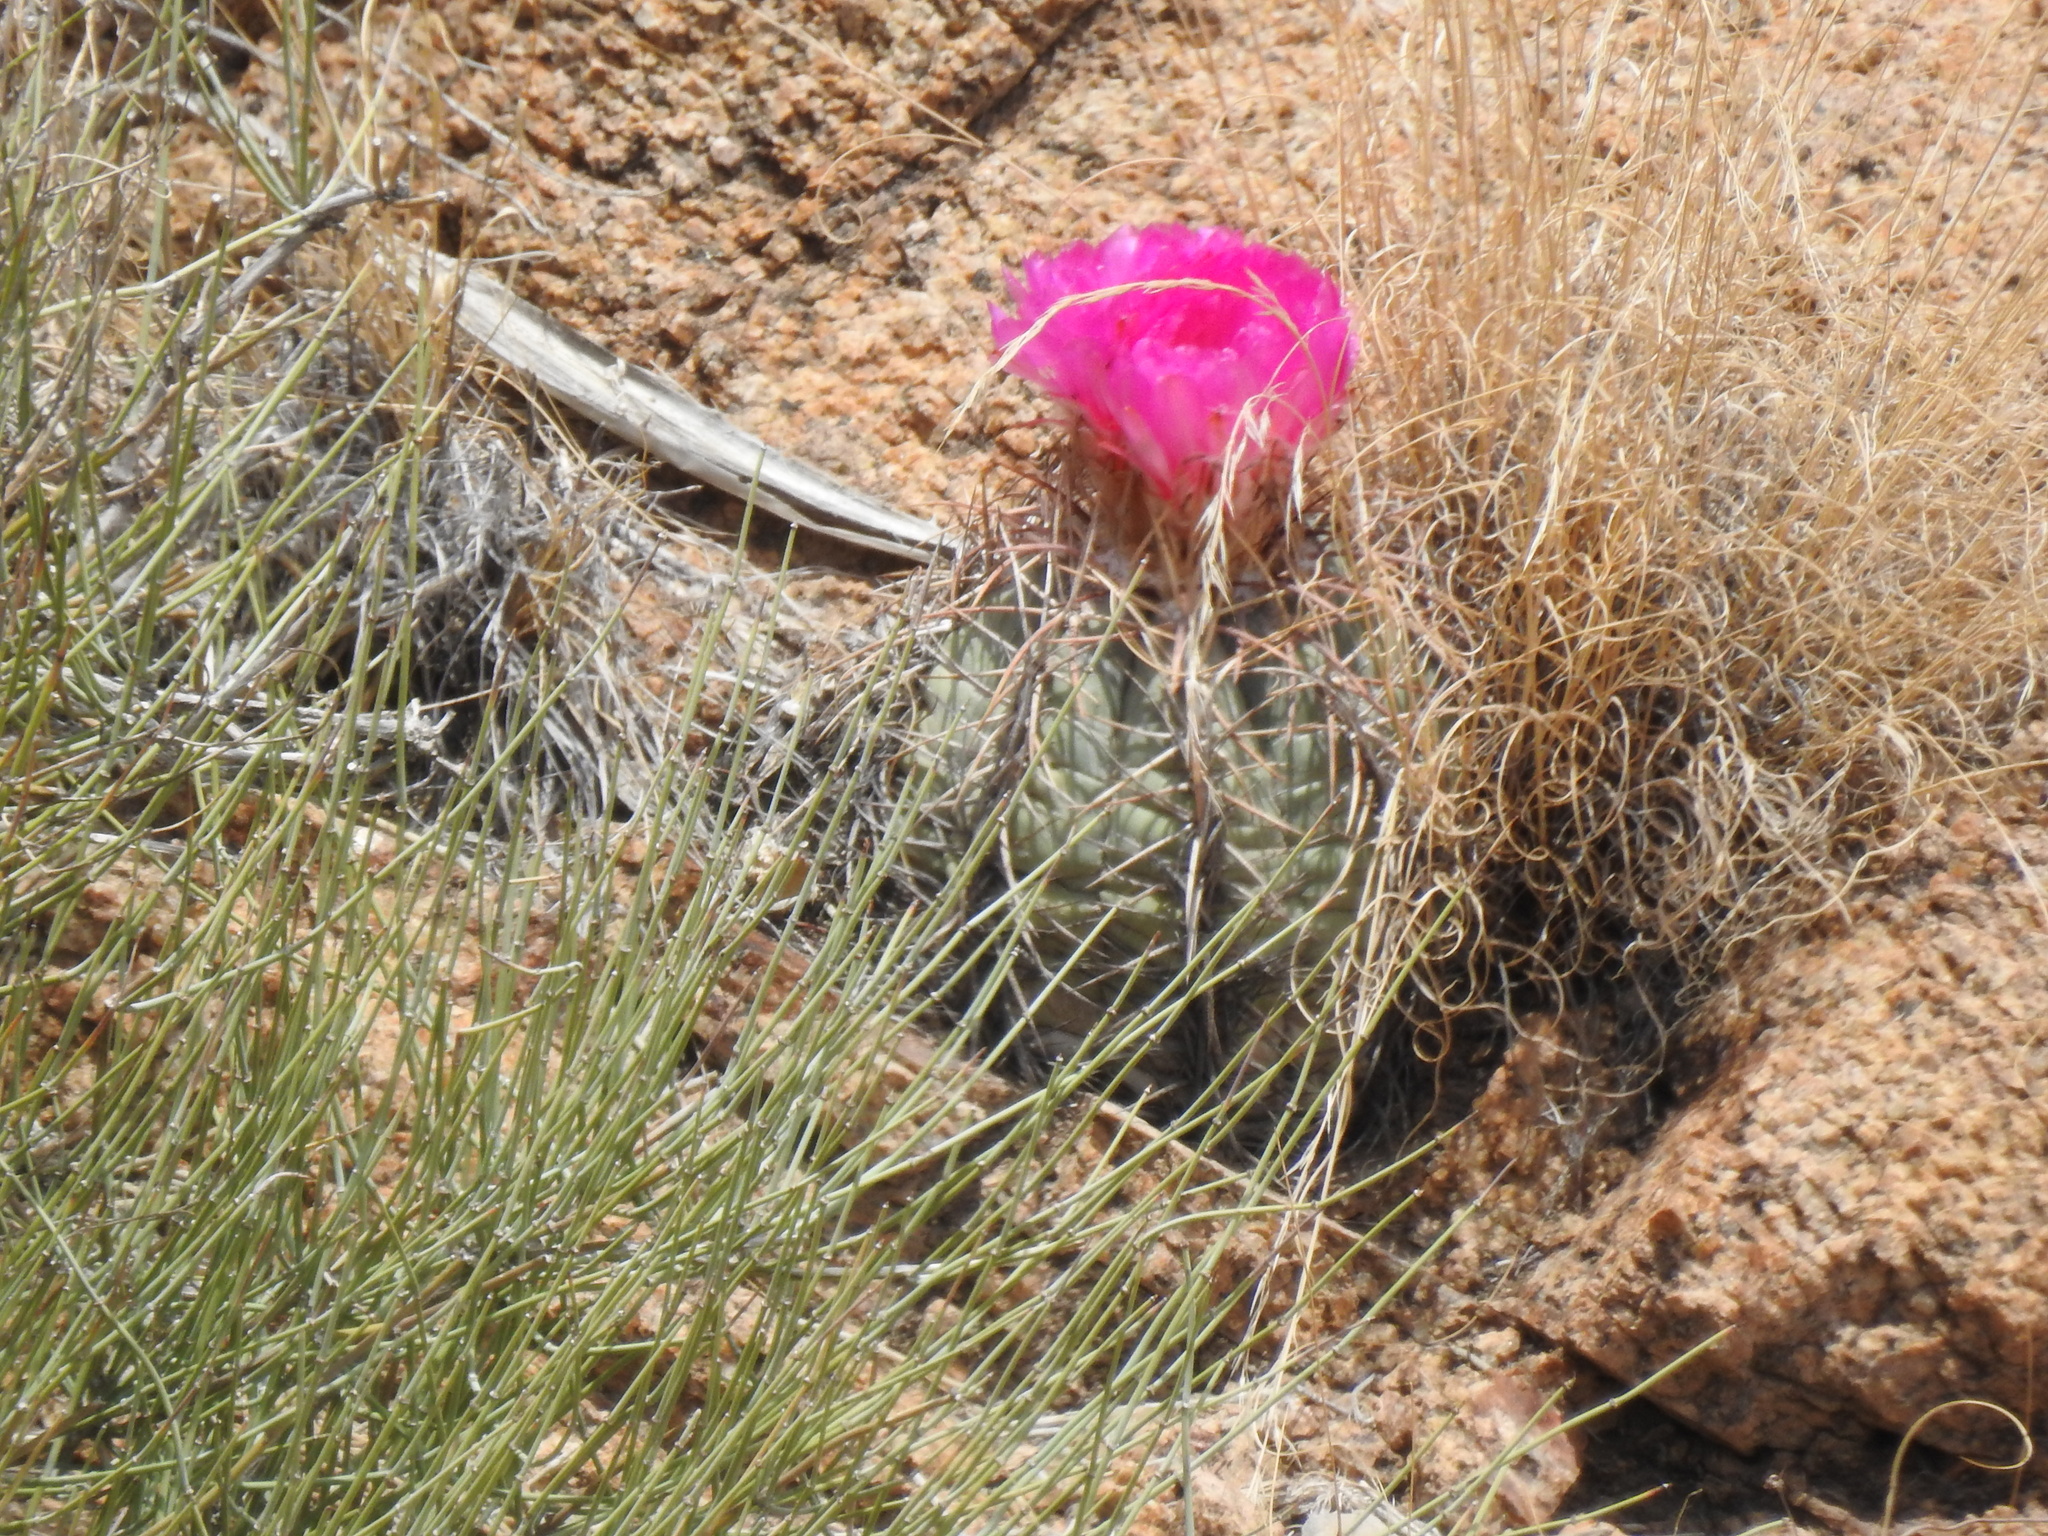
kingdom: Plantae
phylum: Tracheophyta
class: Magnoliopsida
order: Caryophyllales
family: Cactaceae
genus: Echinocactus
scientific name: Echinocactus horizonthalonius
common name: Devilshead
